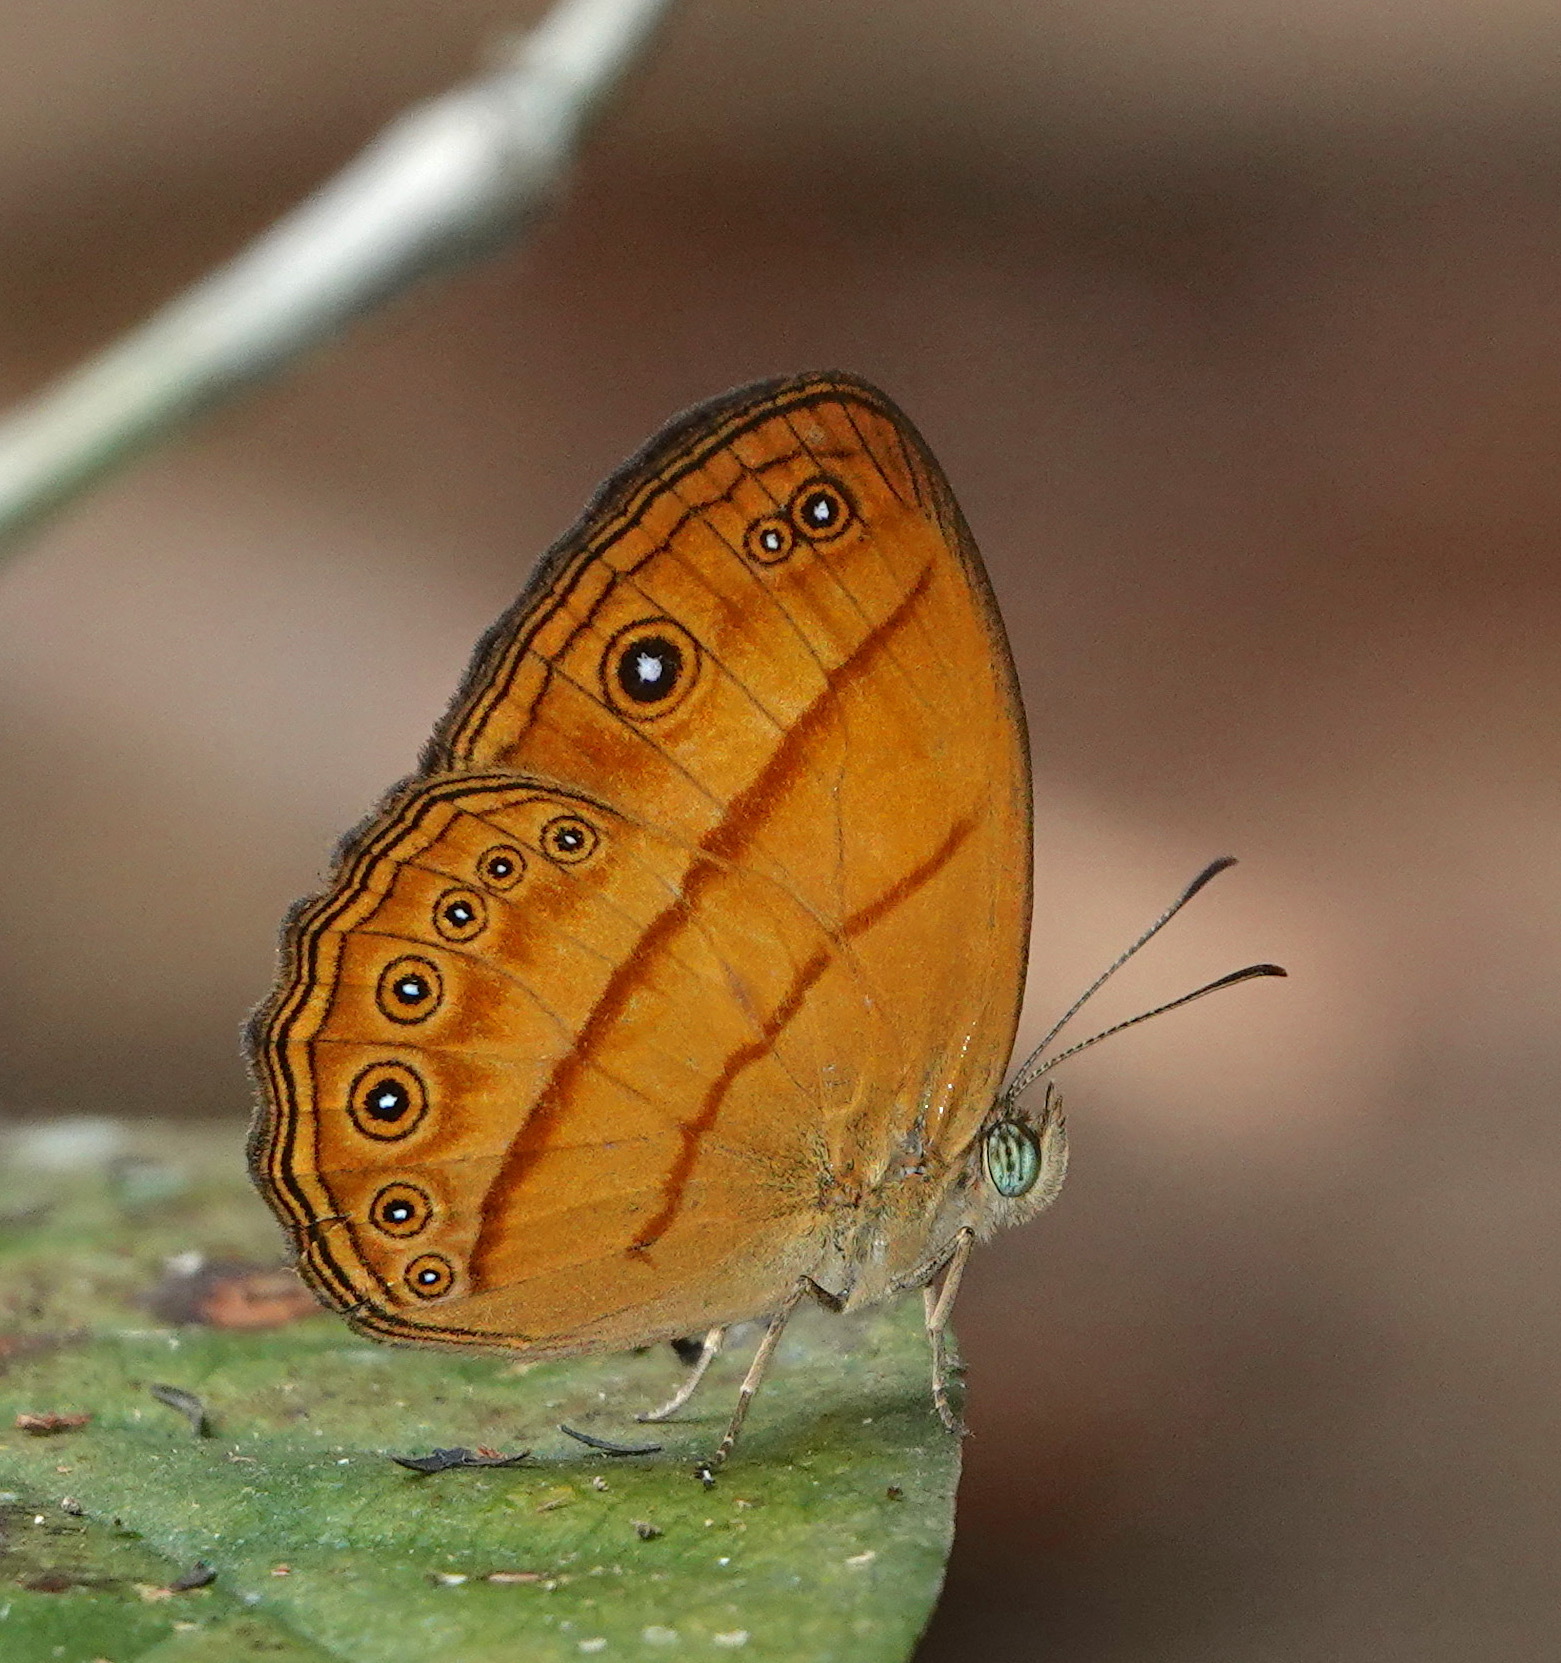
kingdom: Animalia
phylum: Arthropoda
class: Insecta
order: Lepidoptera
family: Nymphalidae
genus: Mycalesis
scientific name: Mycalesis patiana
